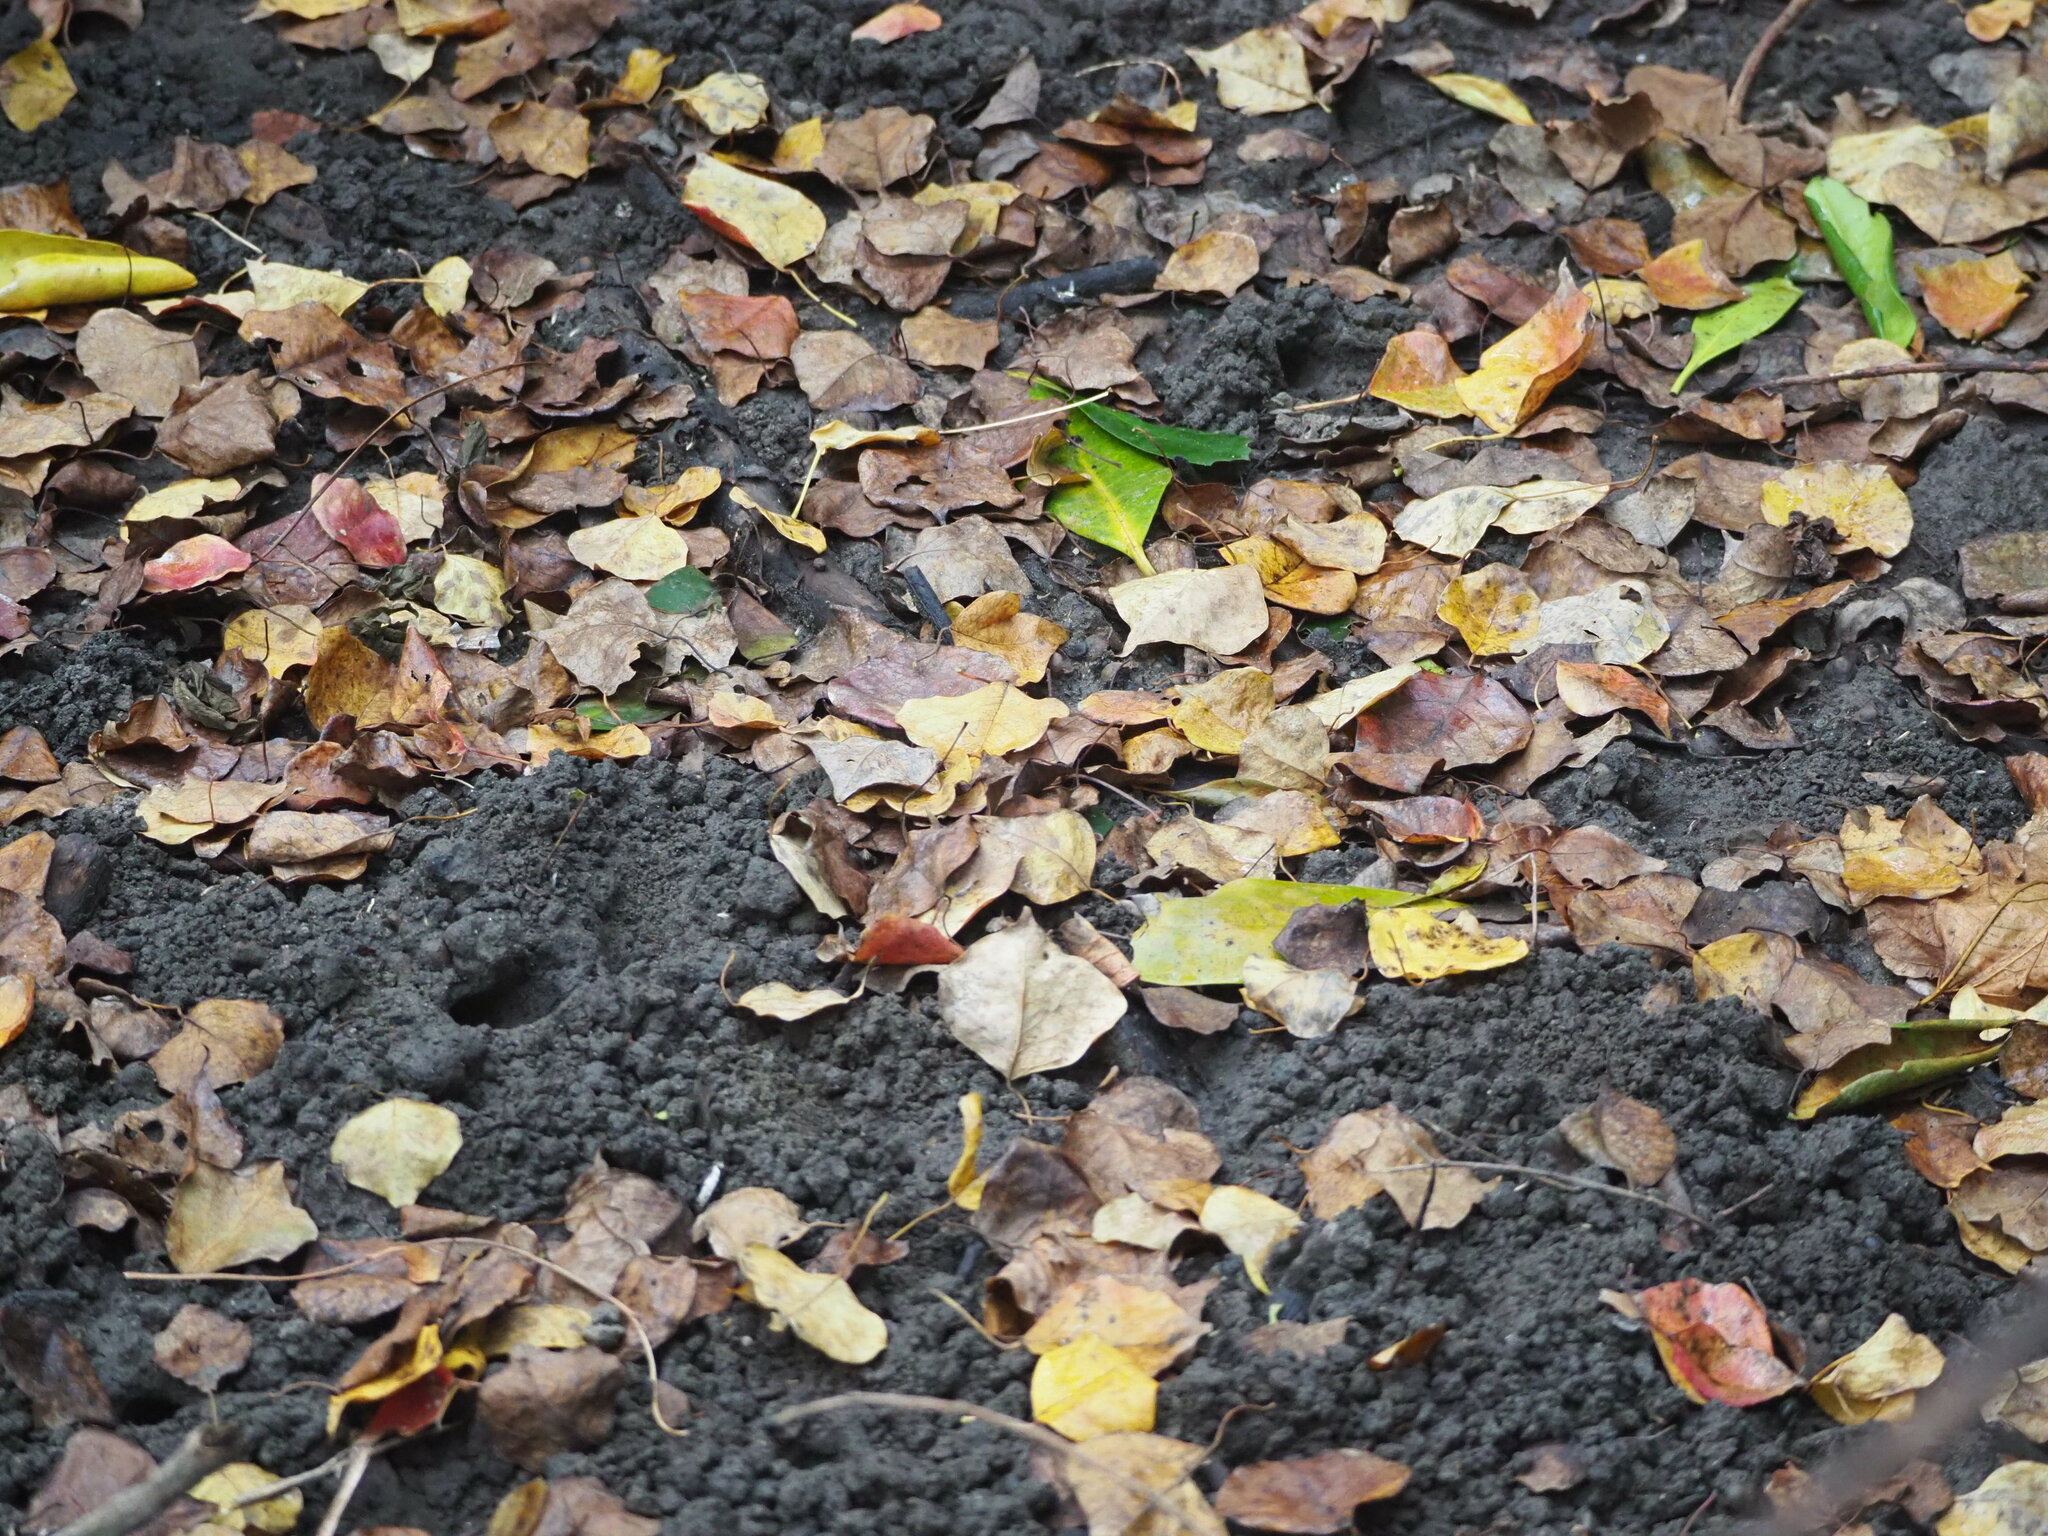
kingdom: Plantae
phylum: Tracheophyta
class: Magnoliopsida
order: Malpighiales
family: Euphorbiaceae
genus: Triadica
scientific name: Triadica sebifera
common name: Chinese tallow
